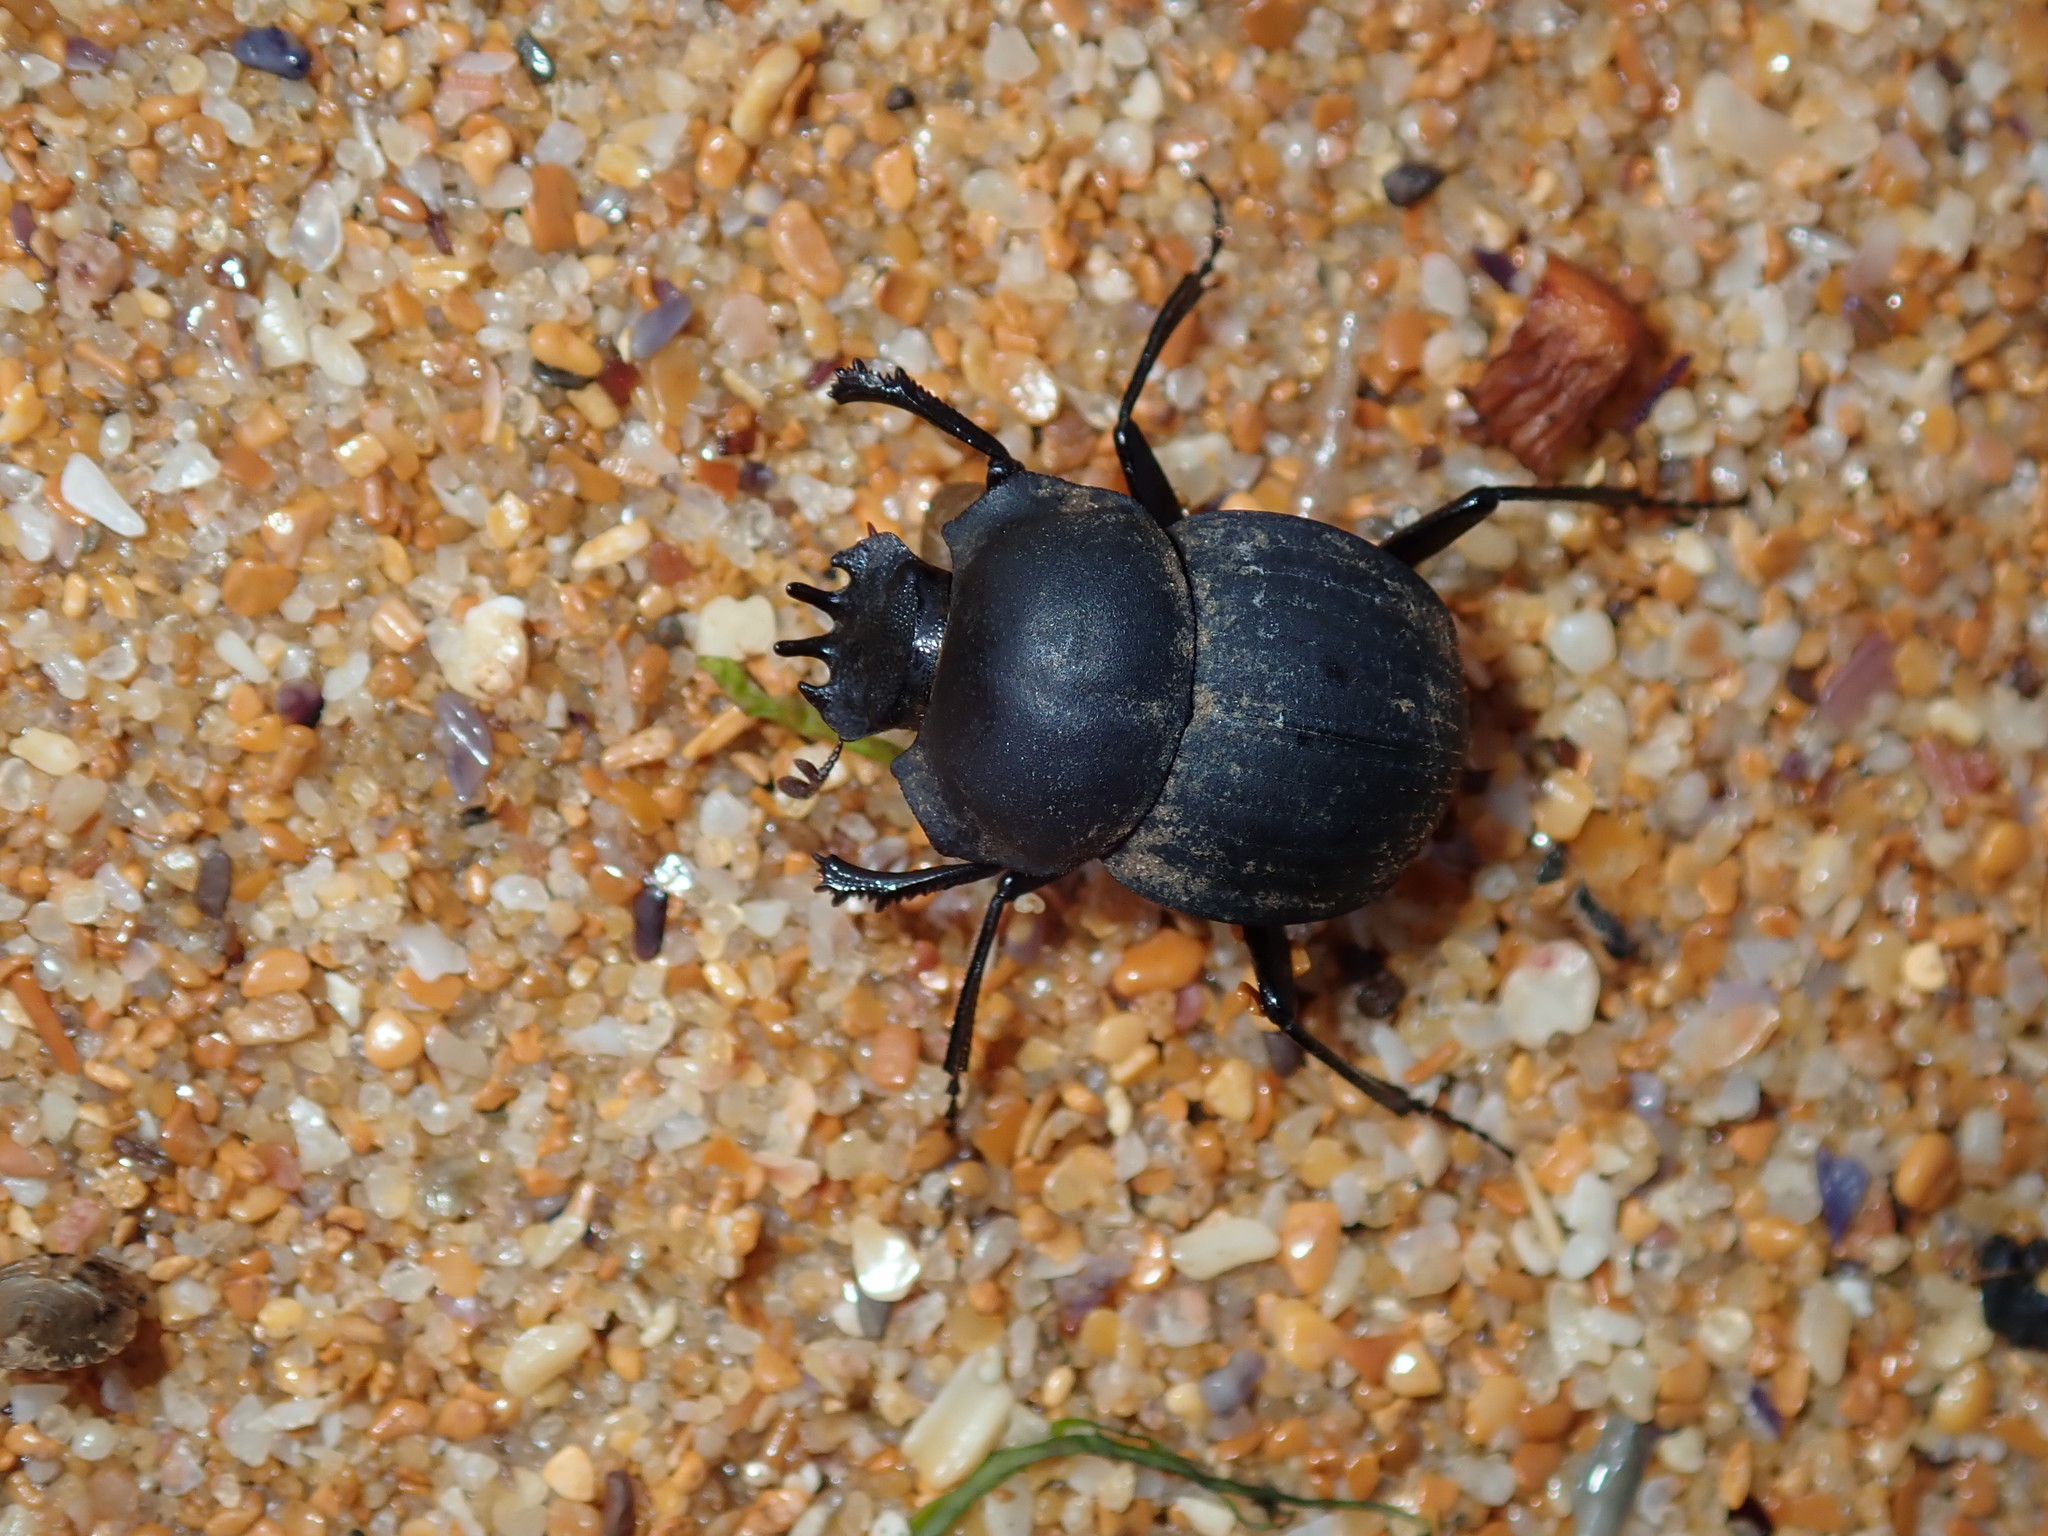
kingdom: Animalia
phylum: Arthropoda
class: Insecta
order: Coleoptera
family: Scarabaeidae
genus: Cephalodesmius
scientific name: Cephalodesmius armiger
